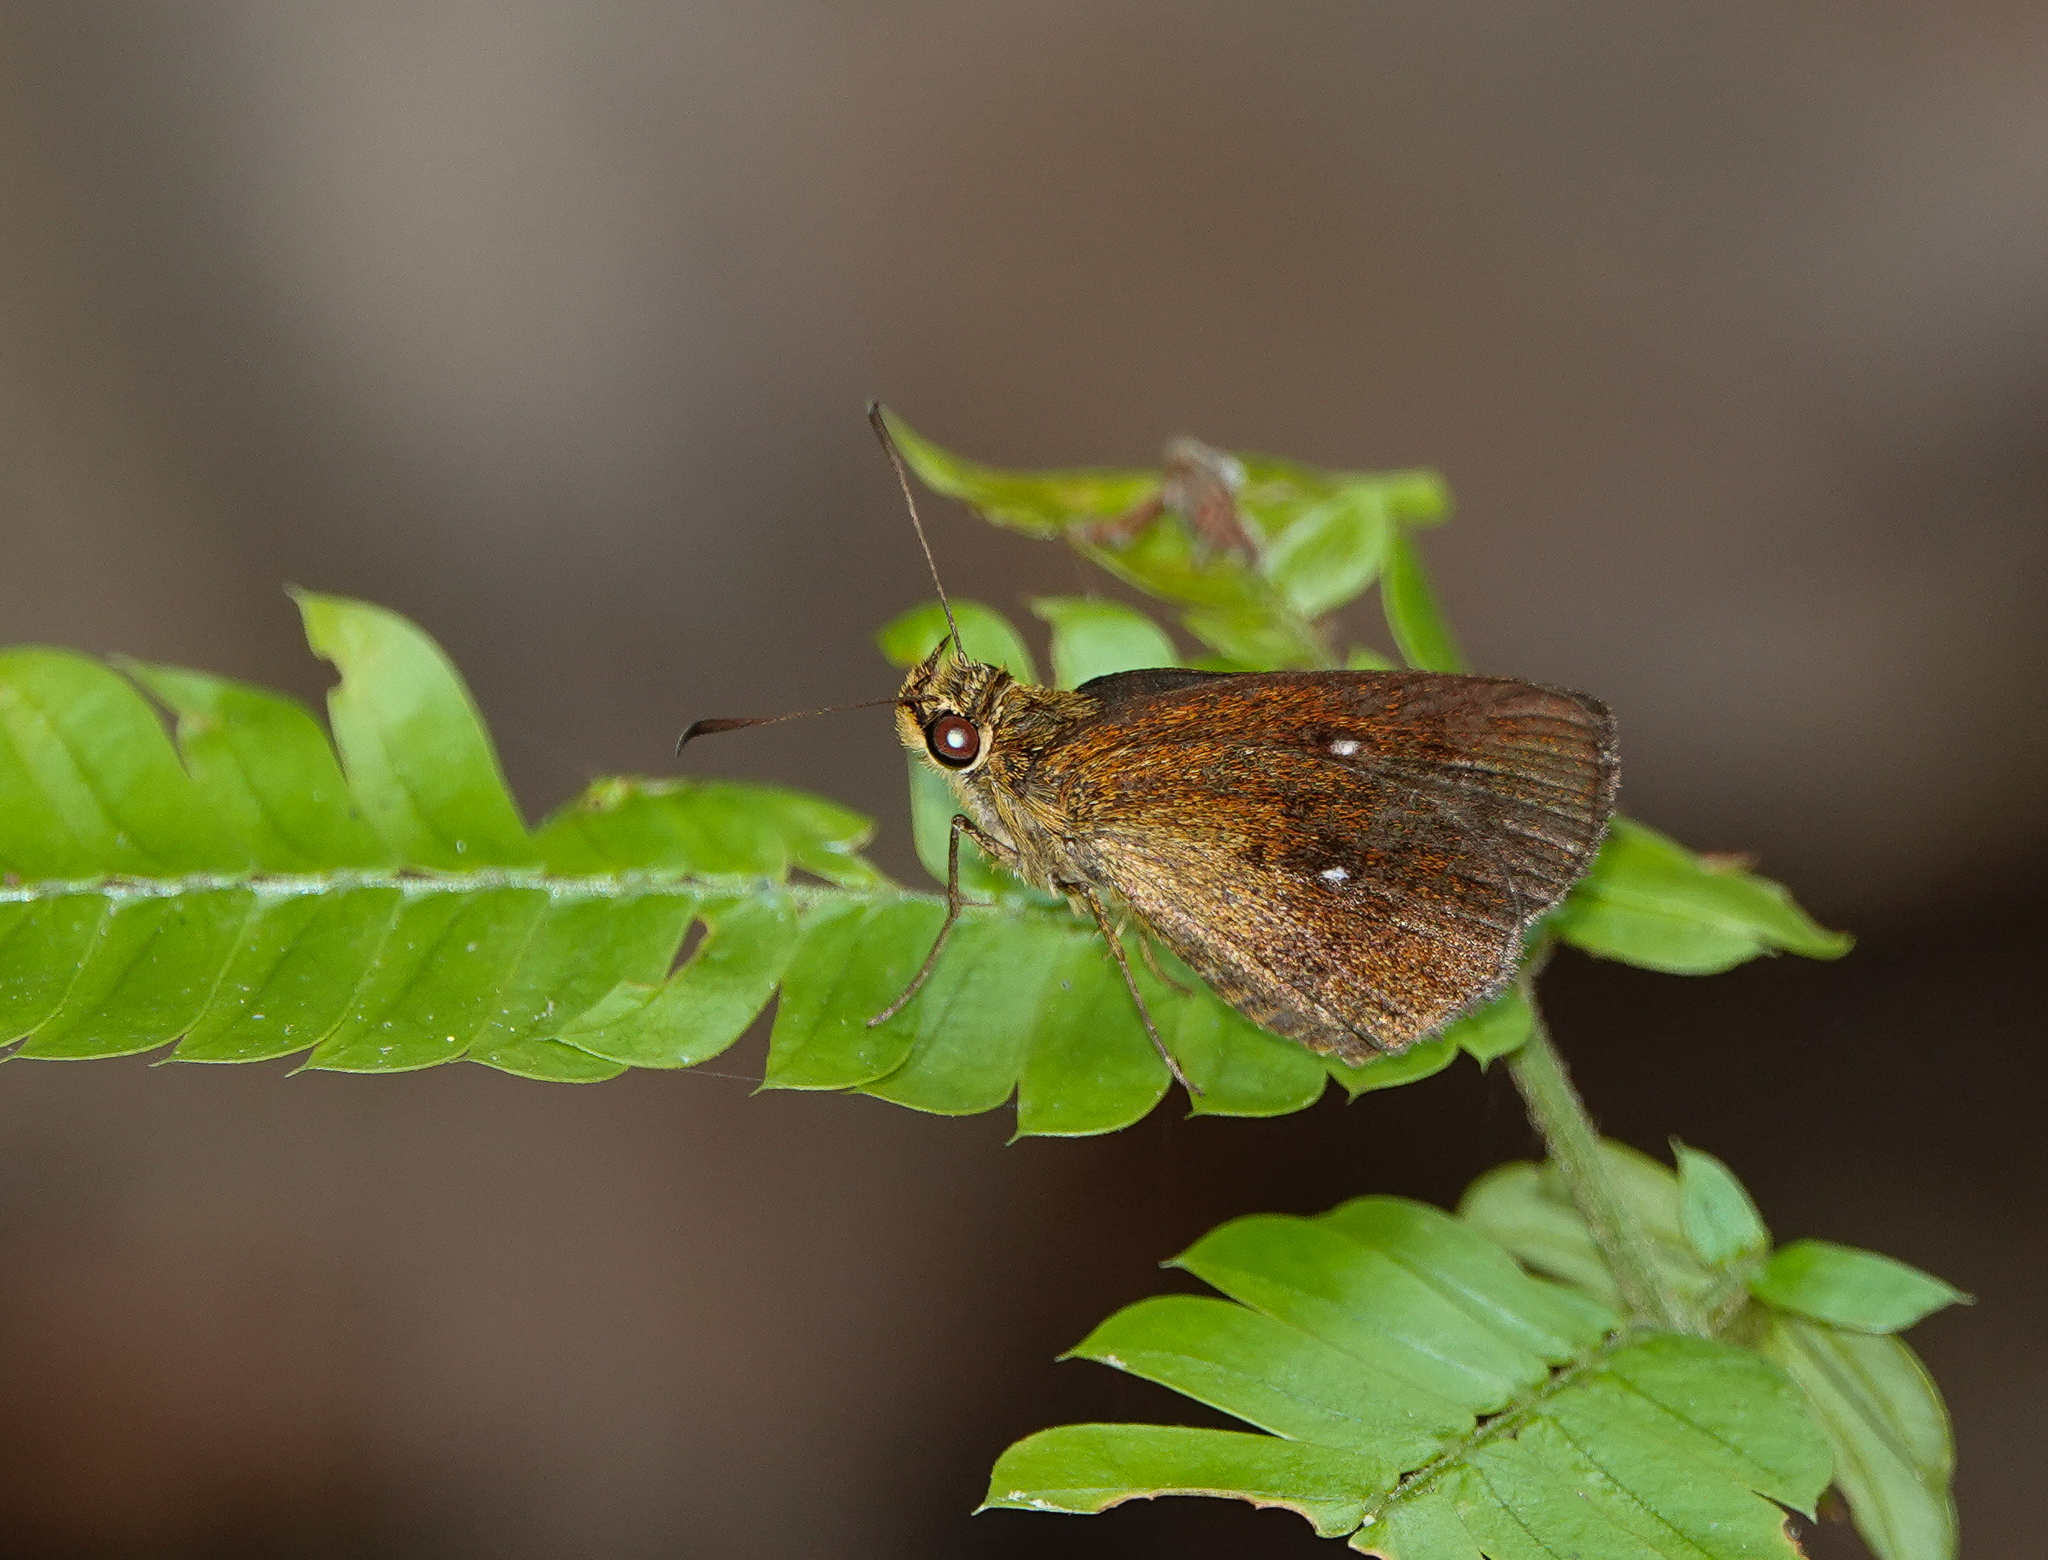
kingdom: Animalia
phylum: Arthropoda
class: Insecta
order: Lepidoptera
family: Hesperiidae
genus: Iambrix
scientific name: Iambrix salsala
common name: Chestnut bob
